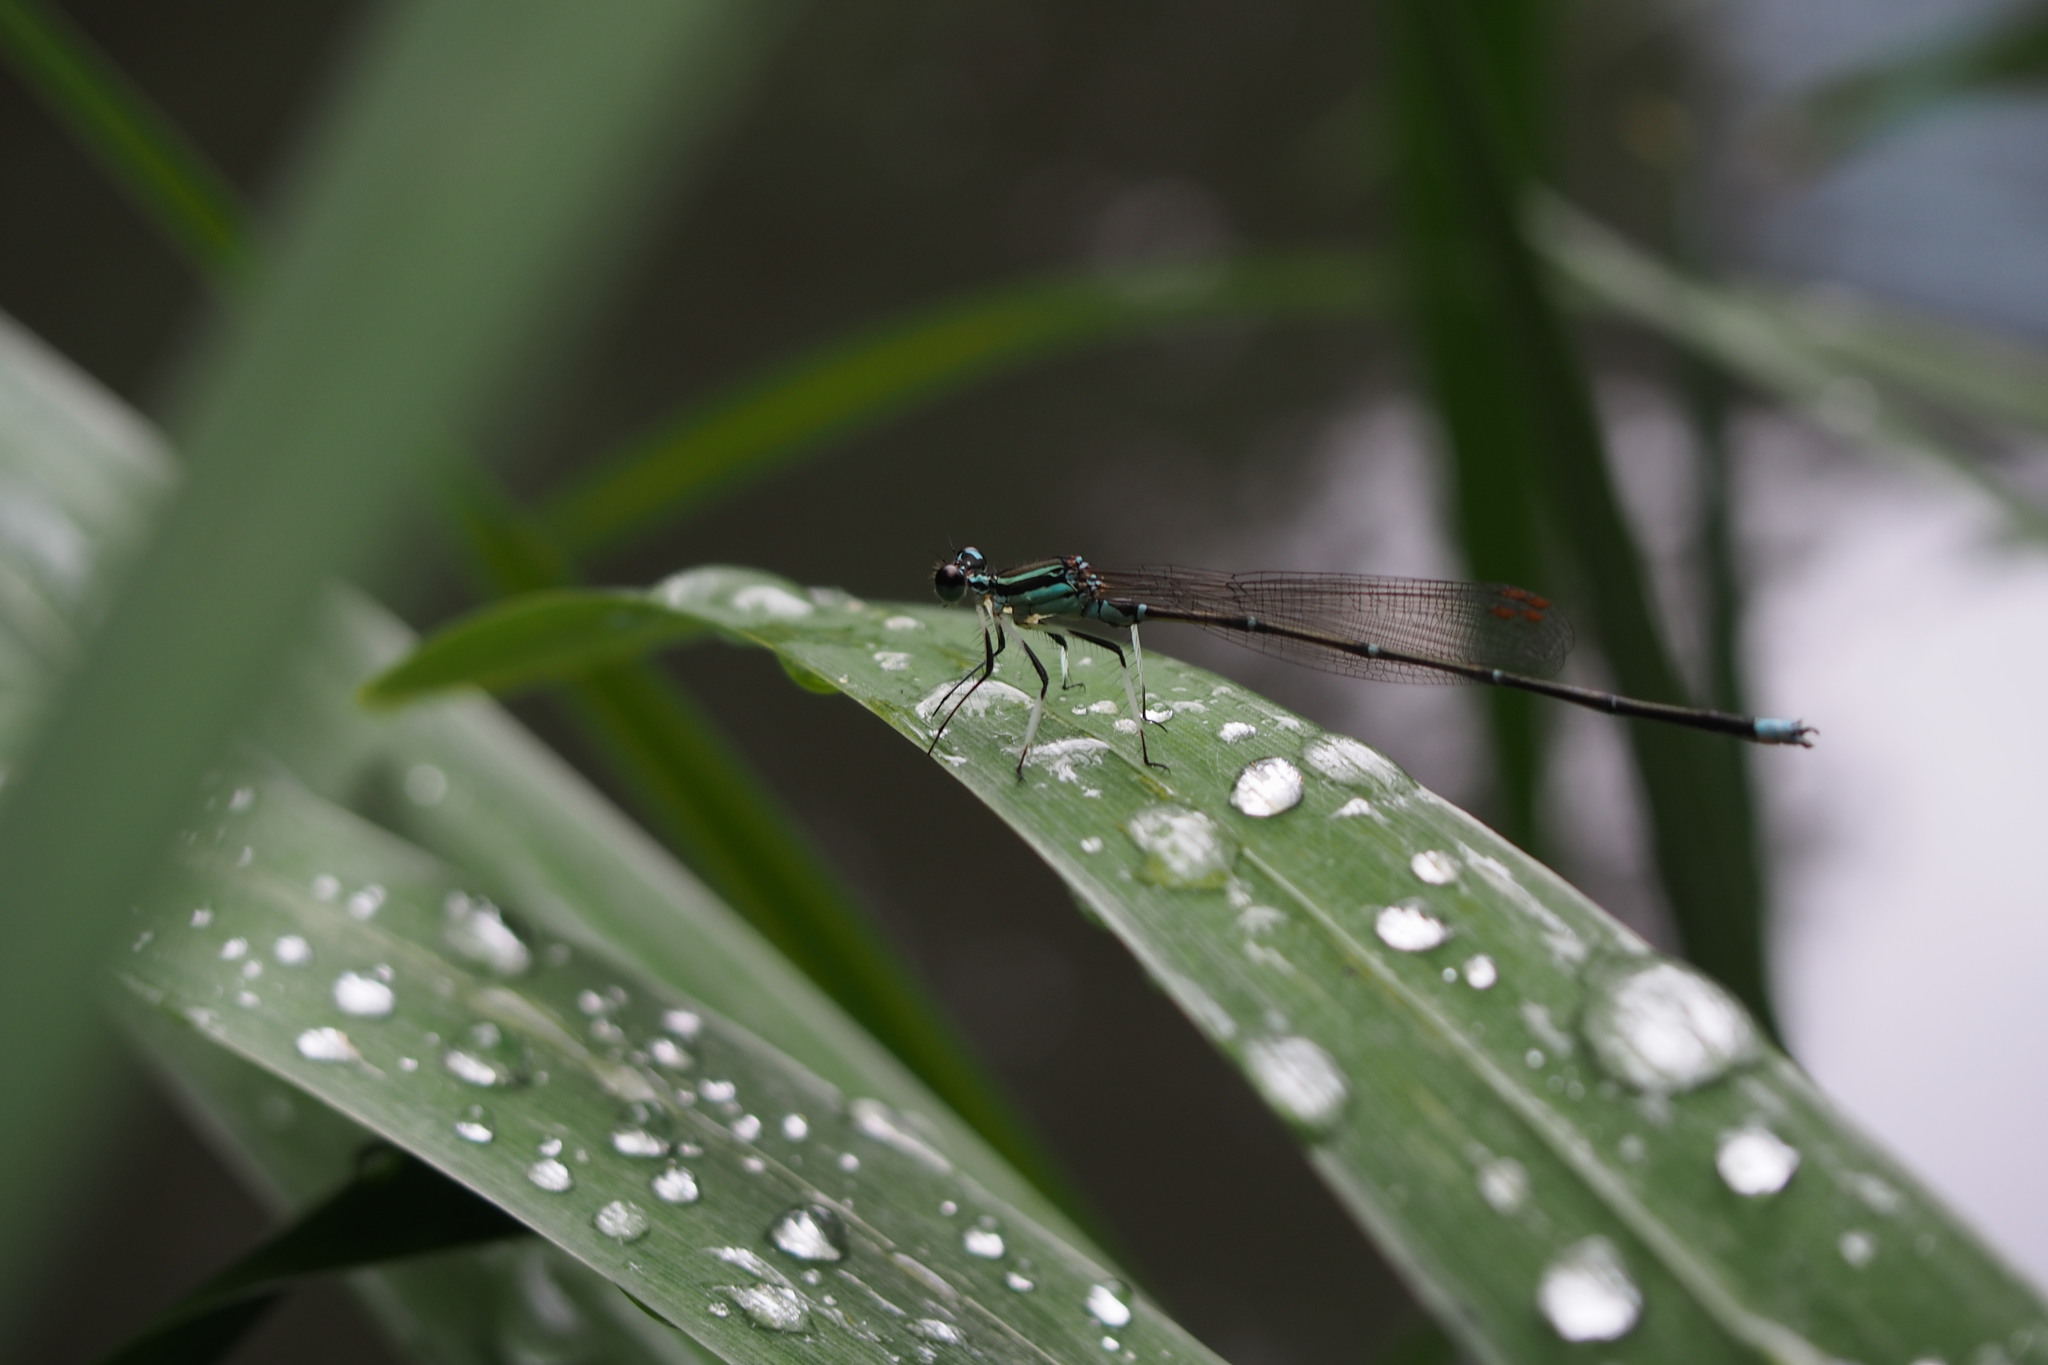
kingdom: Animalia
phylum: Arthropoda
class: Insecta
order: Odonata
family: Platycnemididae
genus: Pseudocopera
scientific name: Pseudocopera annulata
